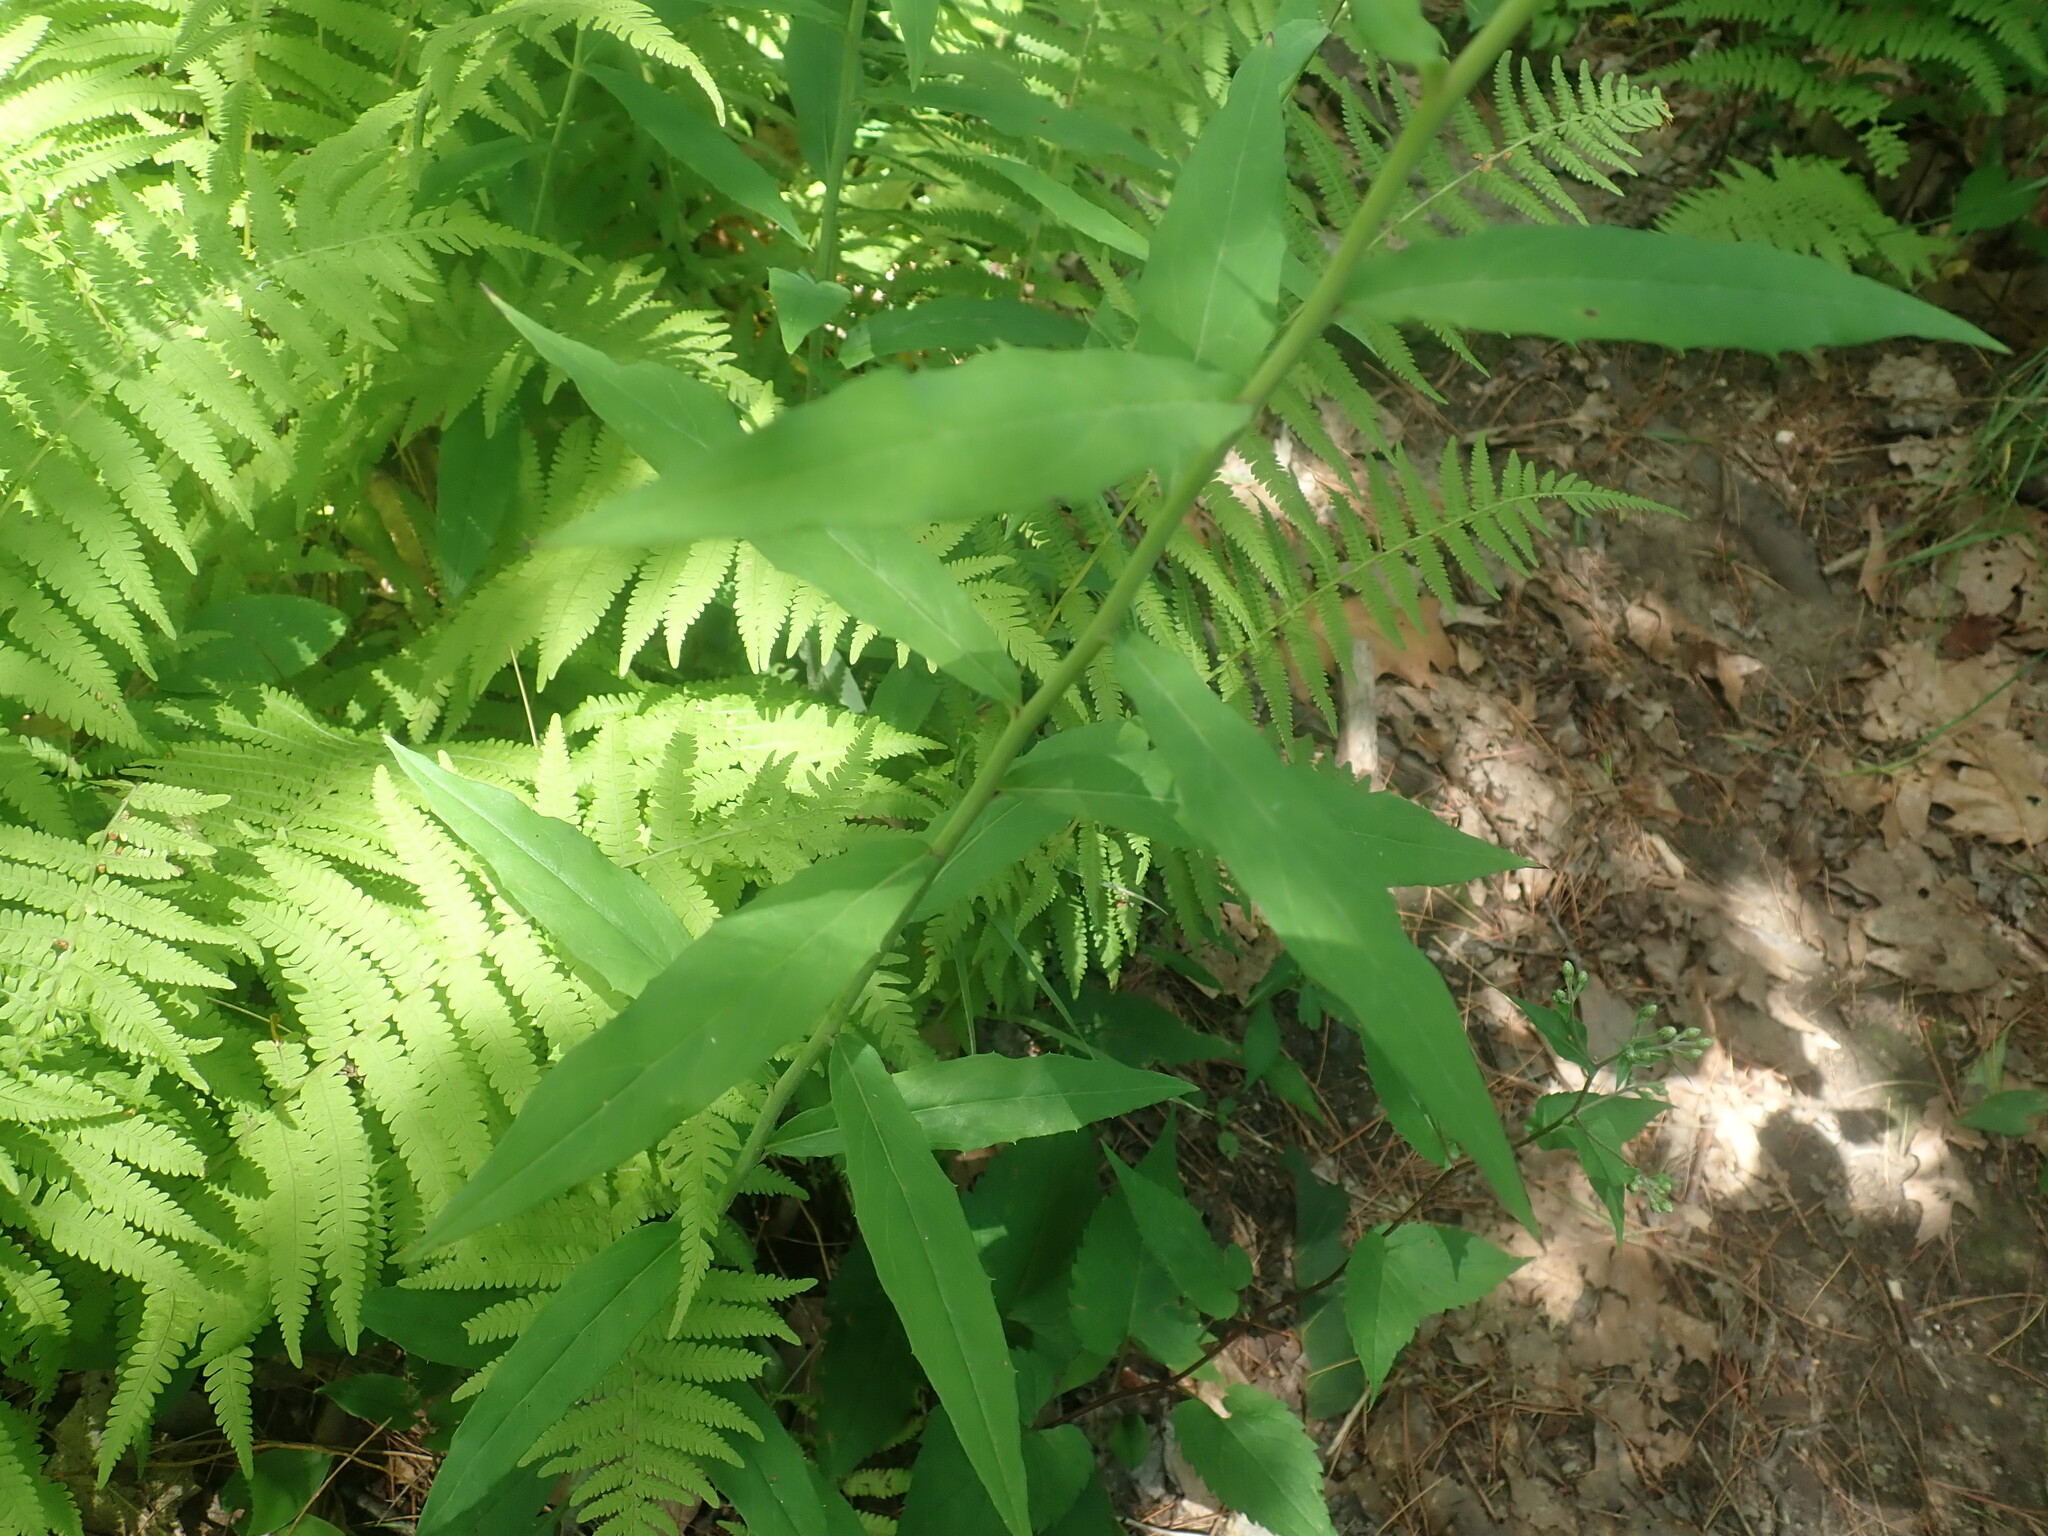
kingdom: Plantae
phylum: Tracheophyta
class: Magnoliopsida
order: Asterales
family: Asteraceae
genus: Hieracium
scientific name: Hieracium paniculatum
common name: Allegheny hawkweed
